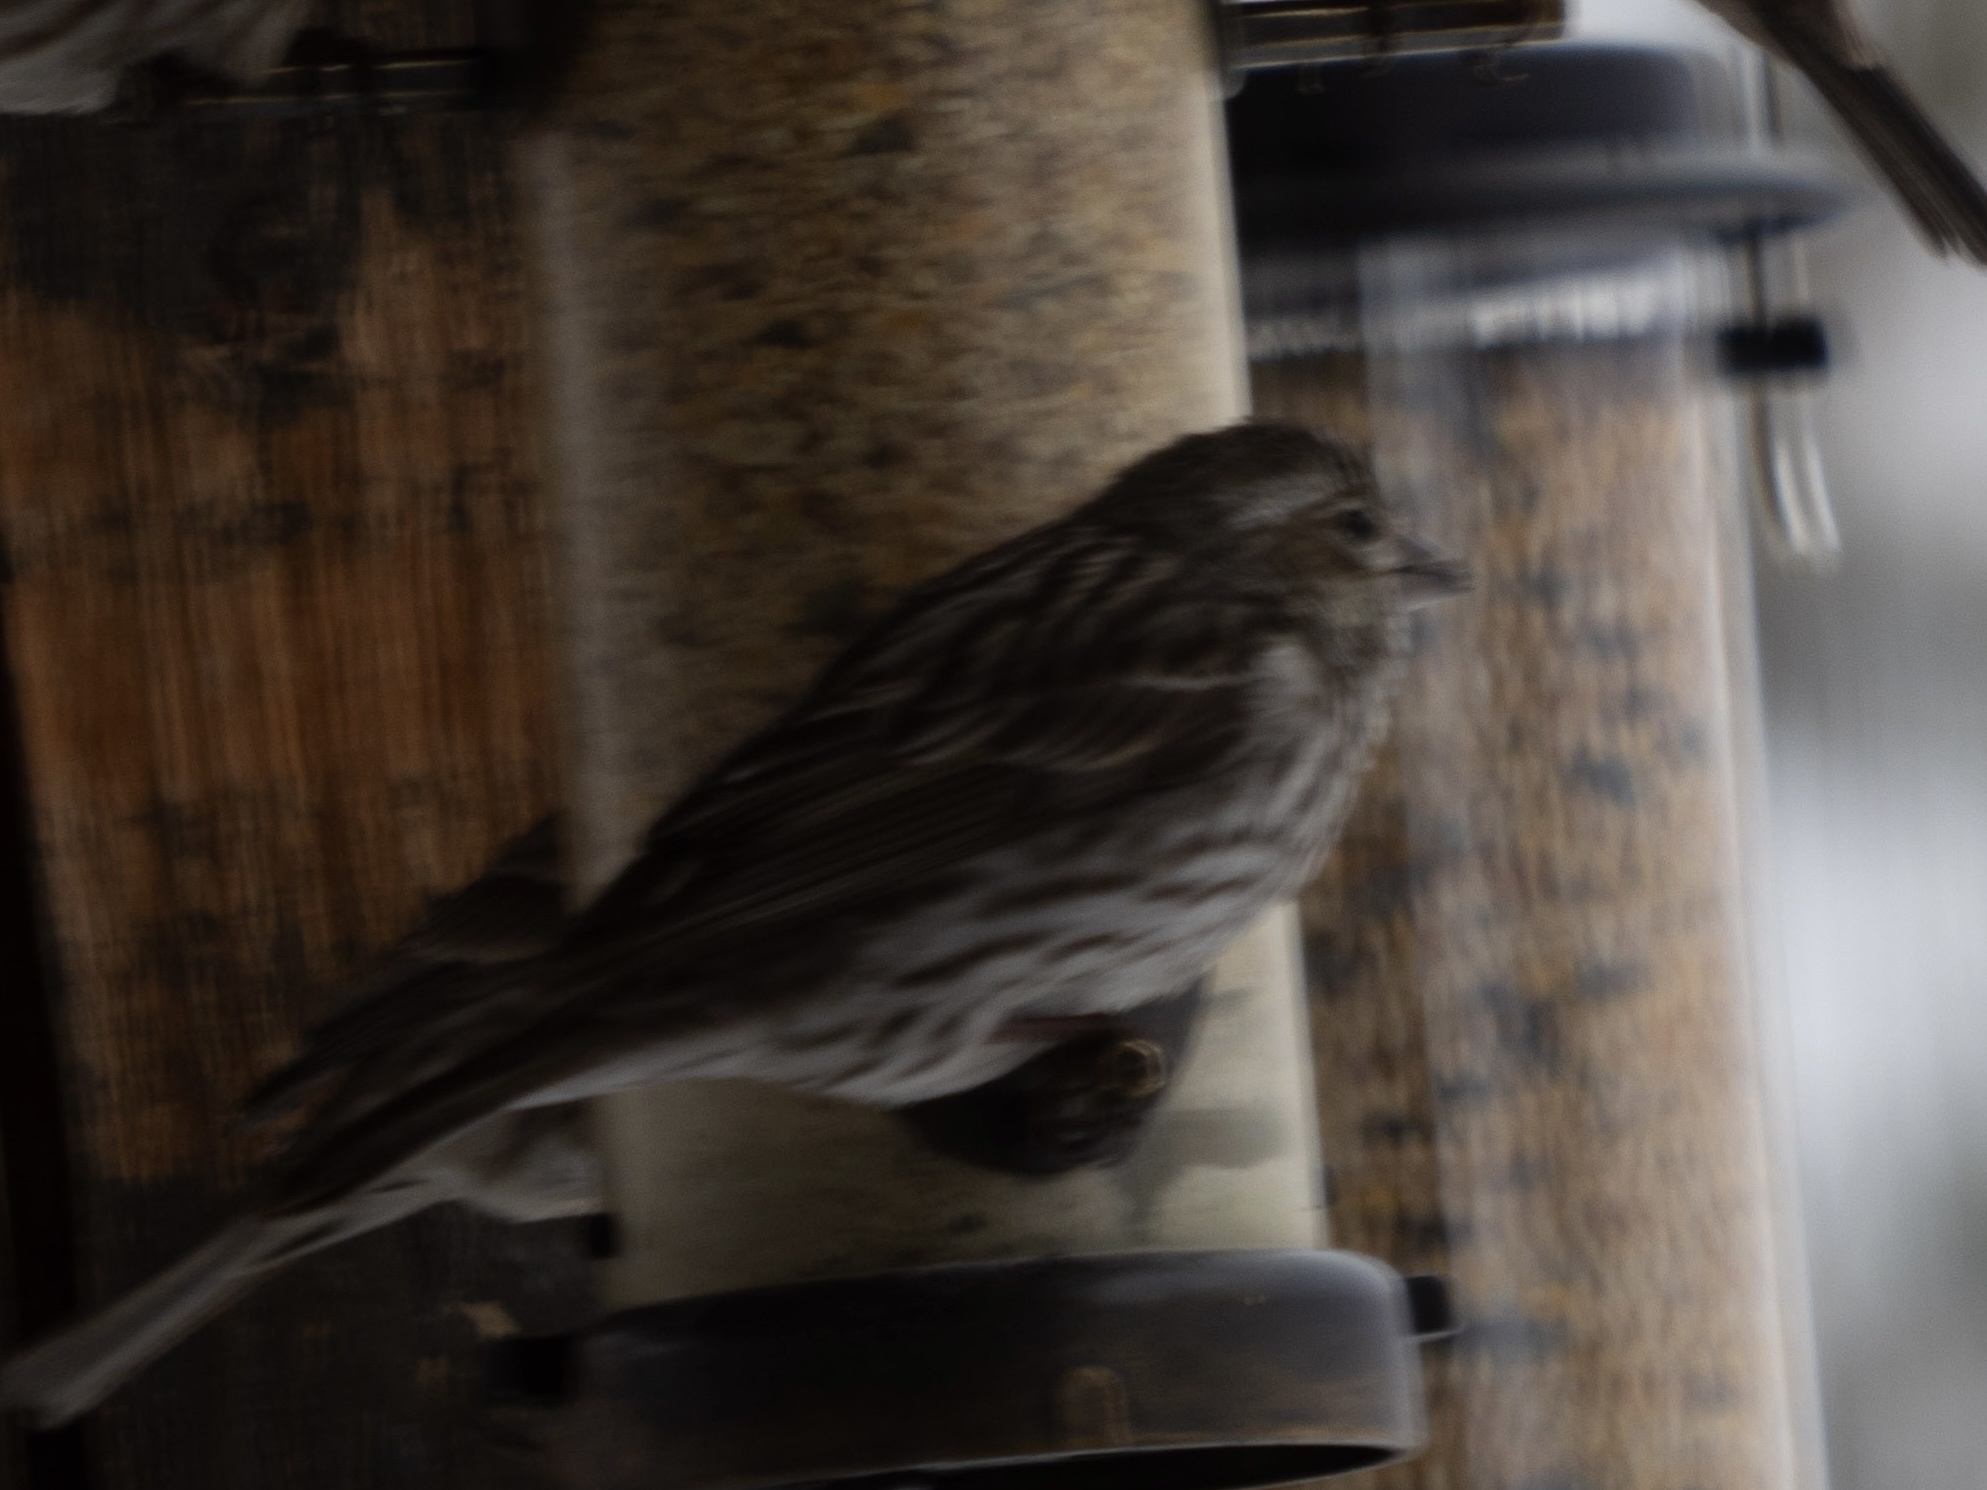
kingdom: Animalia
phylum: Chordata
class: Aves
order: Passeriformes
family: Fringillidae
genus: Haemorhous
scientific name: Haemorhous cassinii
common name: Cassin's finch
